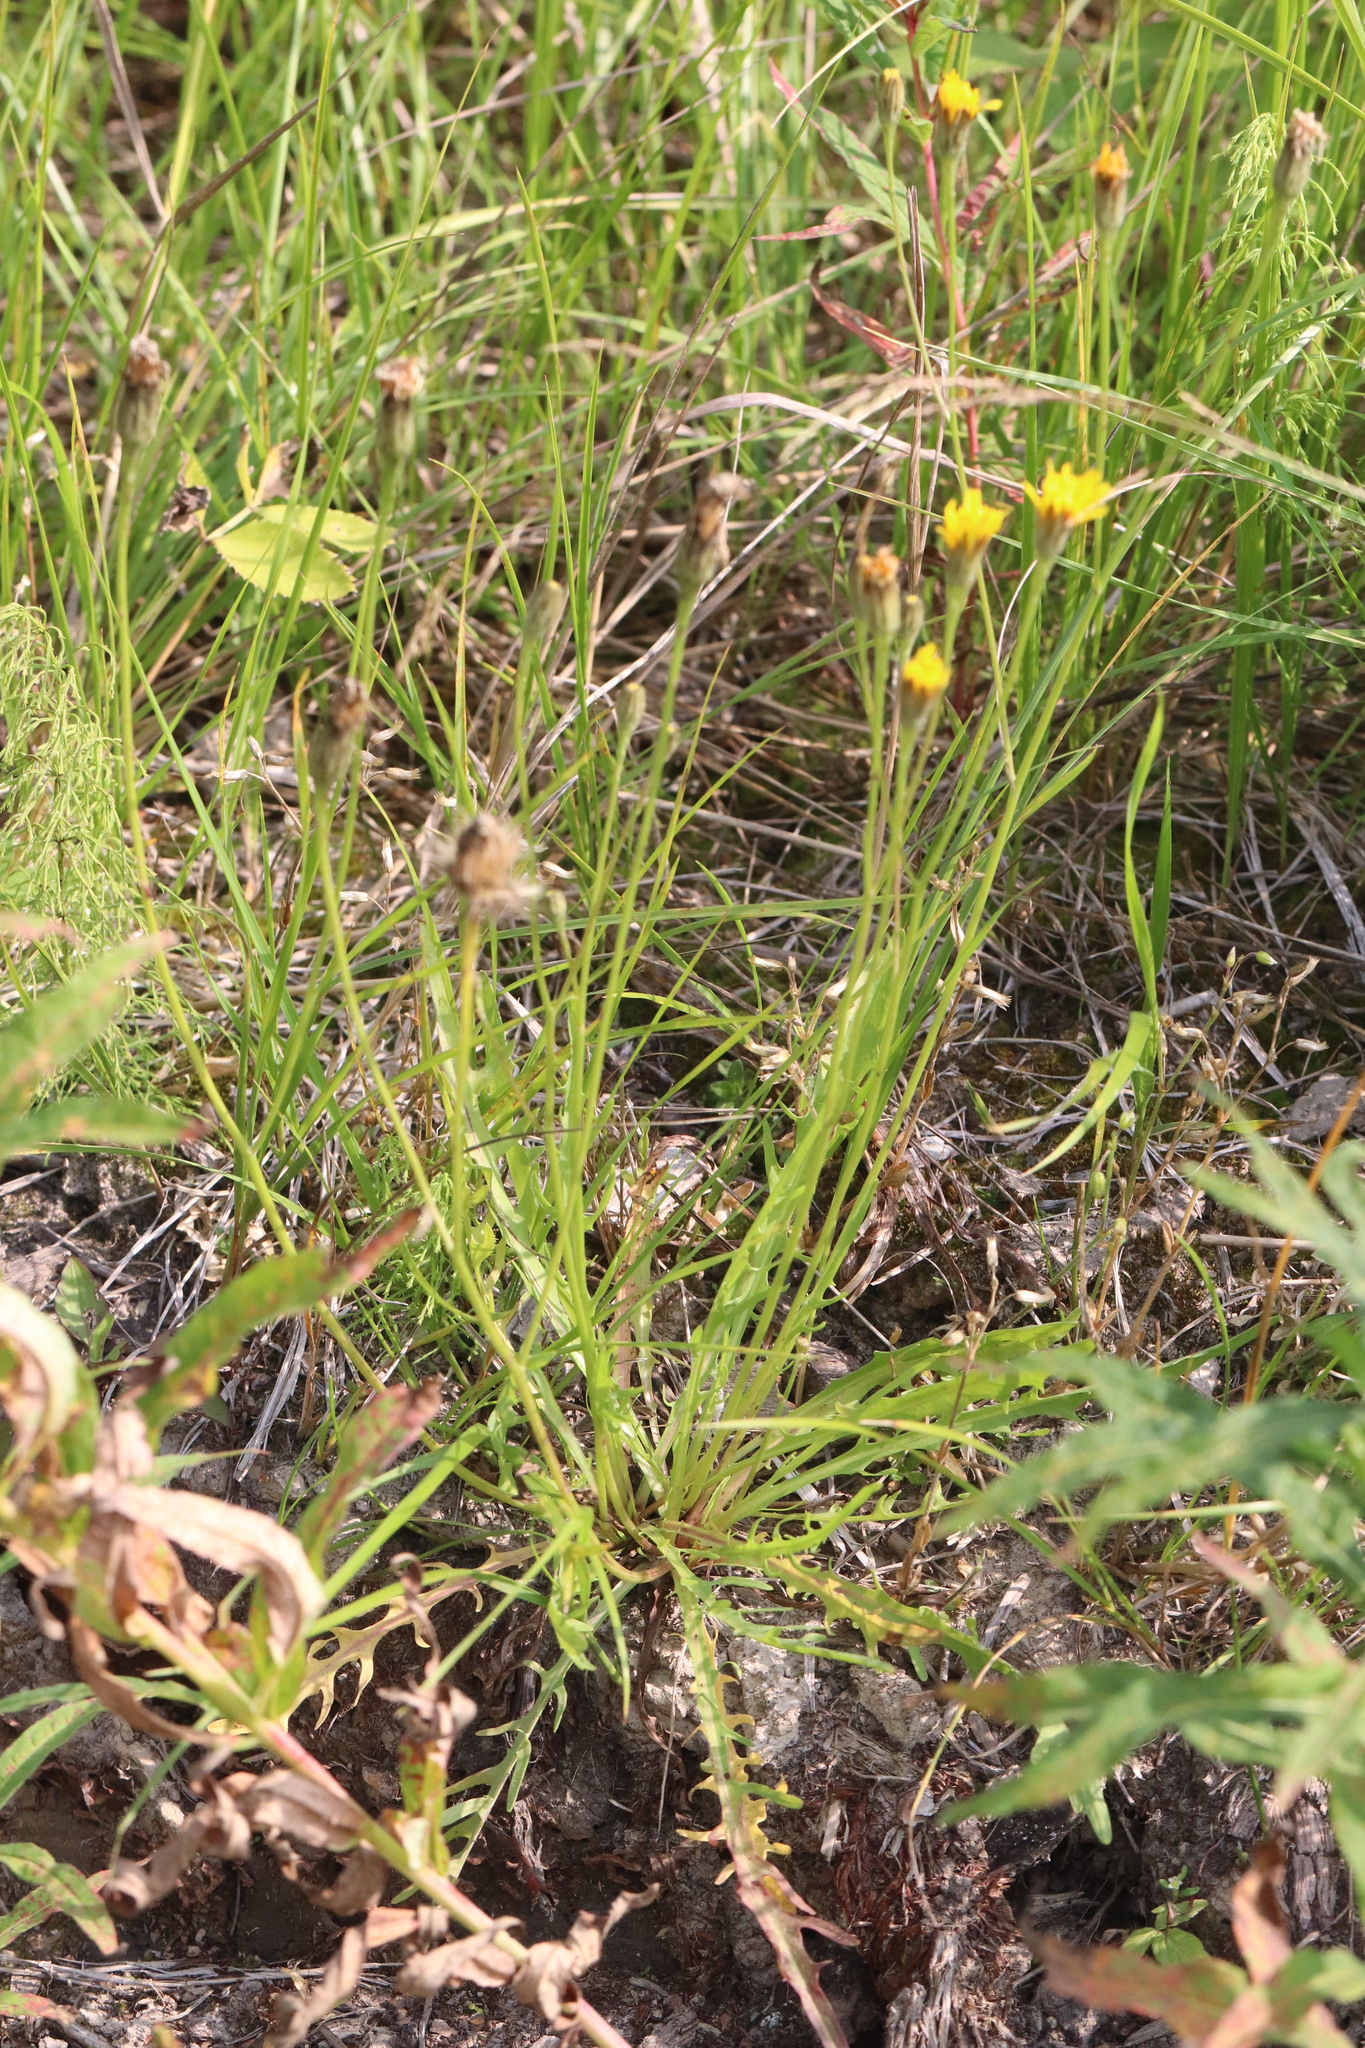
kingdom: Plantae
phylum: Tracheophyta
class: Magnoliopsida
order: Asterales
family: Asteraceae
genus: Scorzoneroides
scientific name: Scorzoneroides autumnalis
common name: Autumn hawkbit
